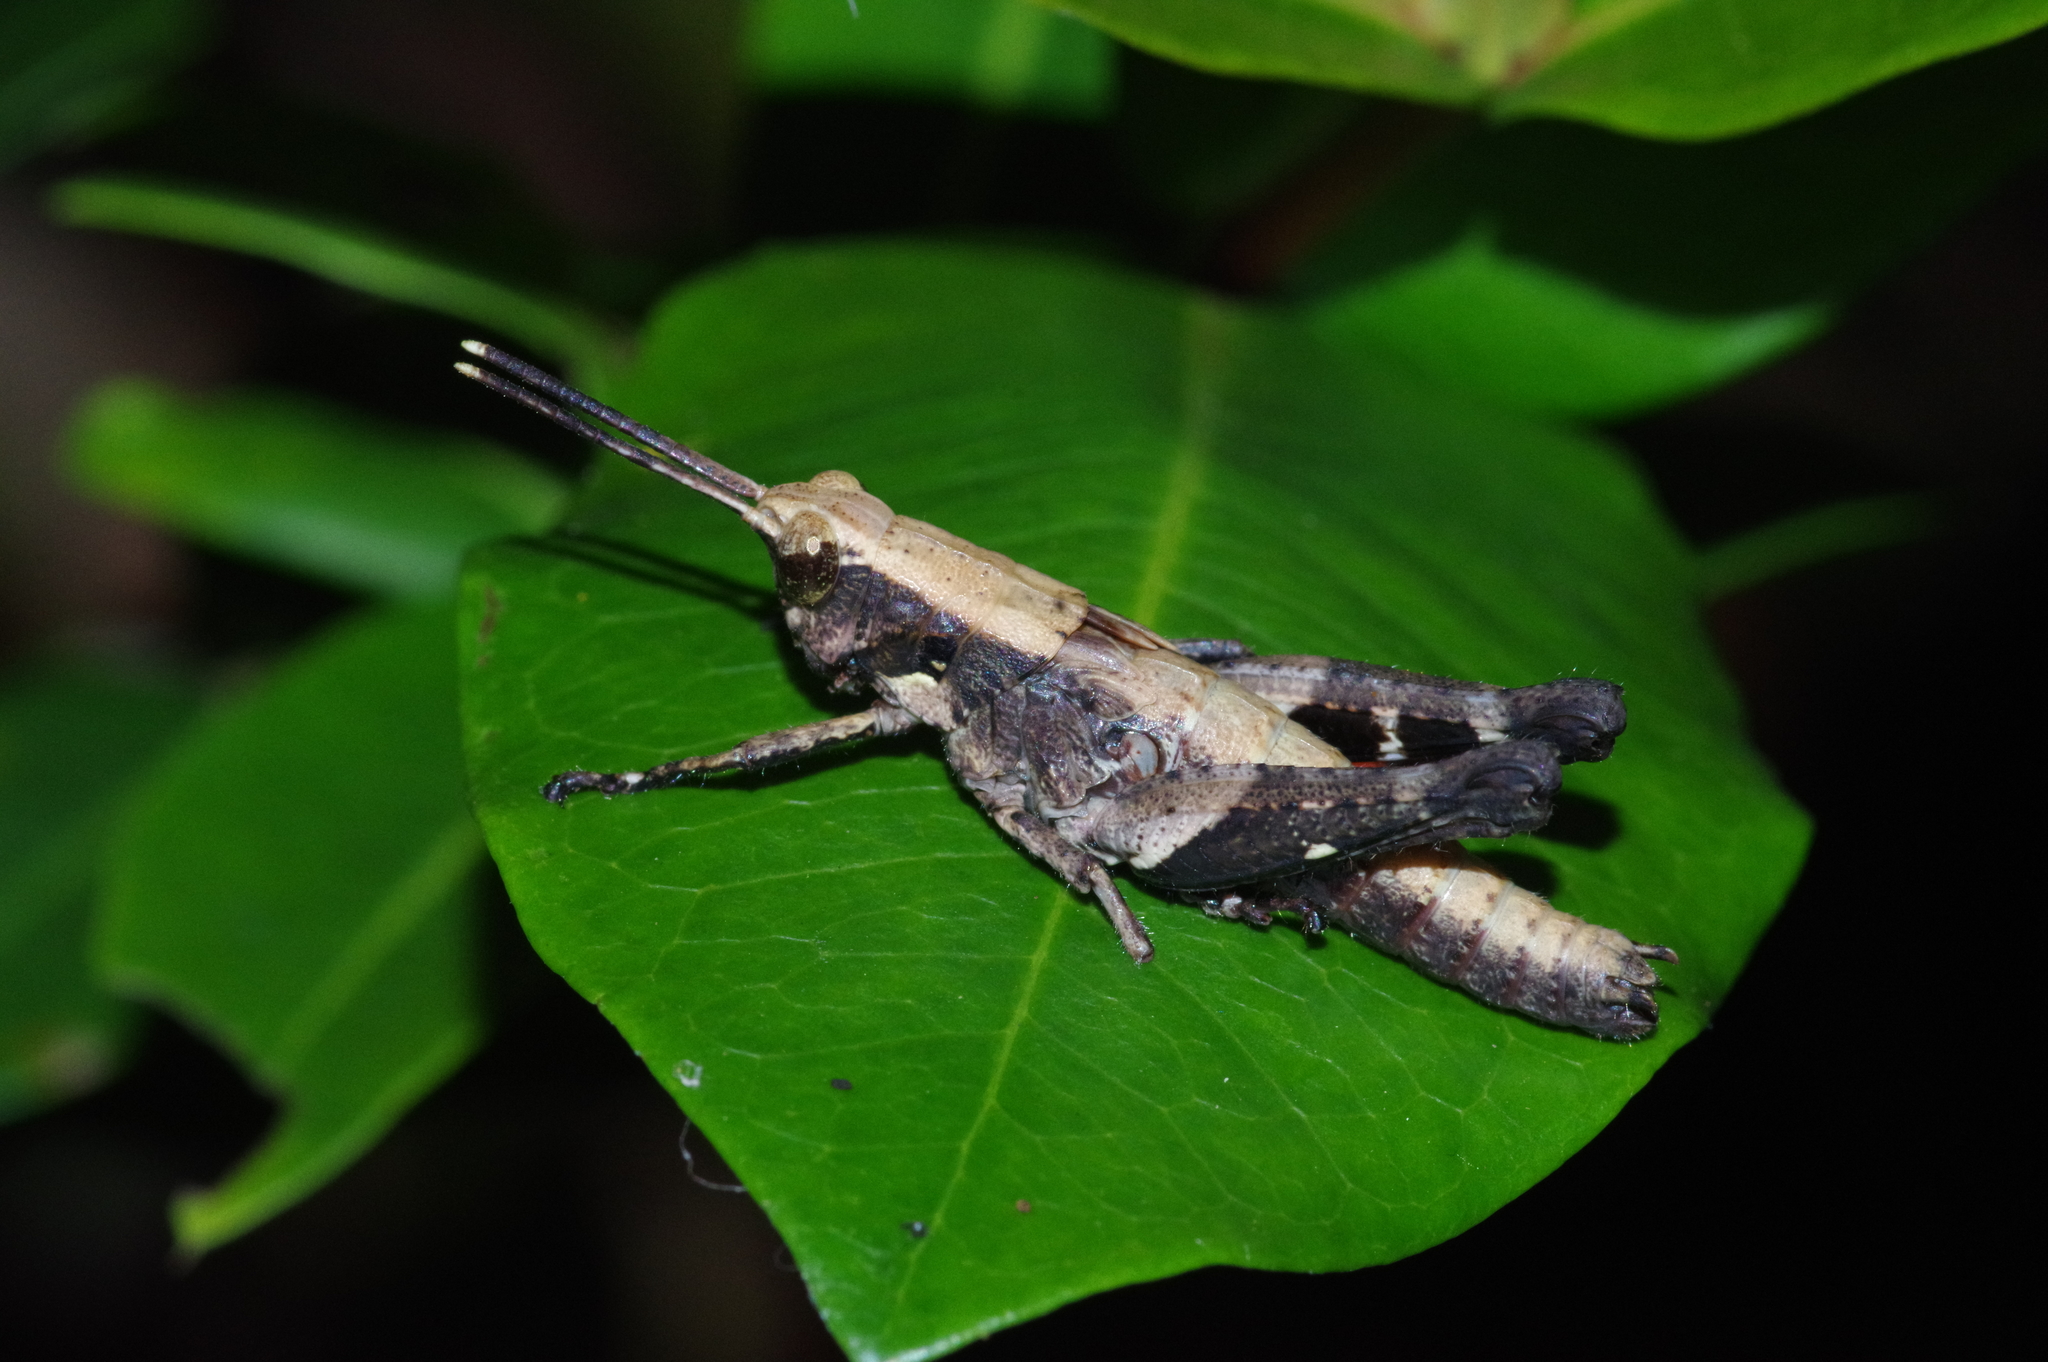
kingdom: Animalia
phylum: Arthropoda
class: Insecta
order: Orthoptera
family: Acrididae
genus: Traulia
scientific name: Traulia ornata
